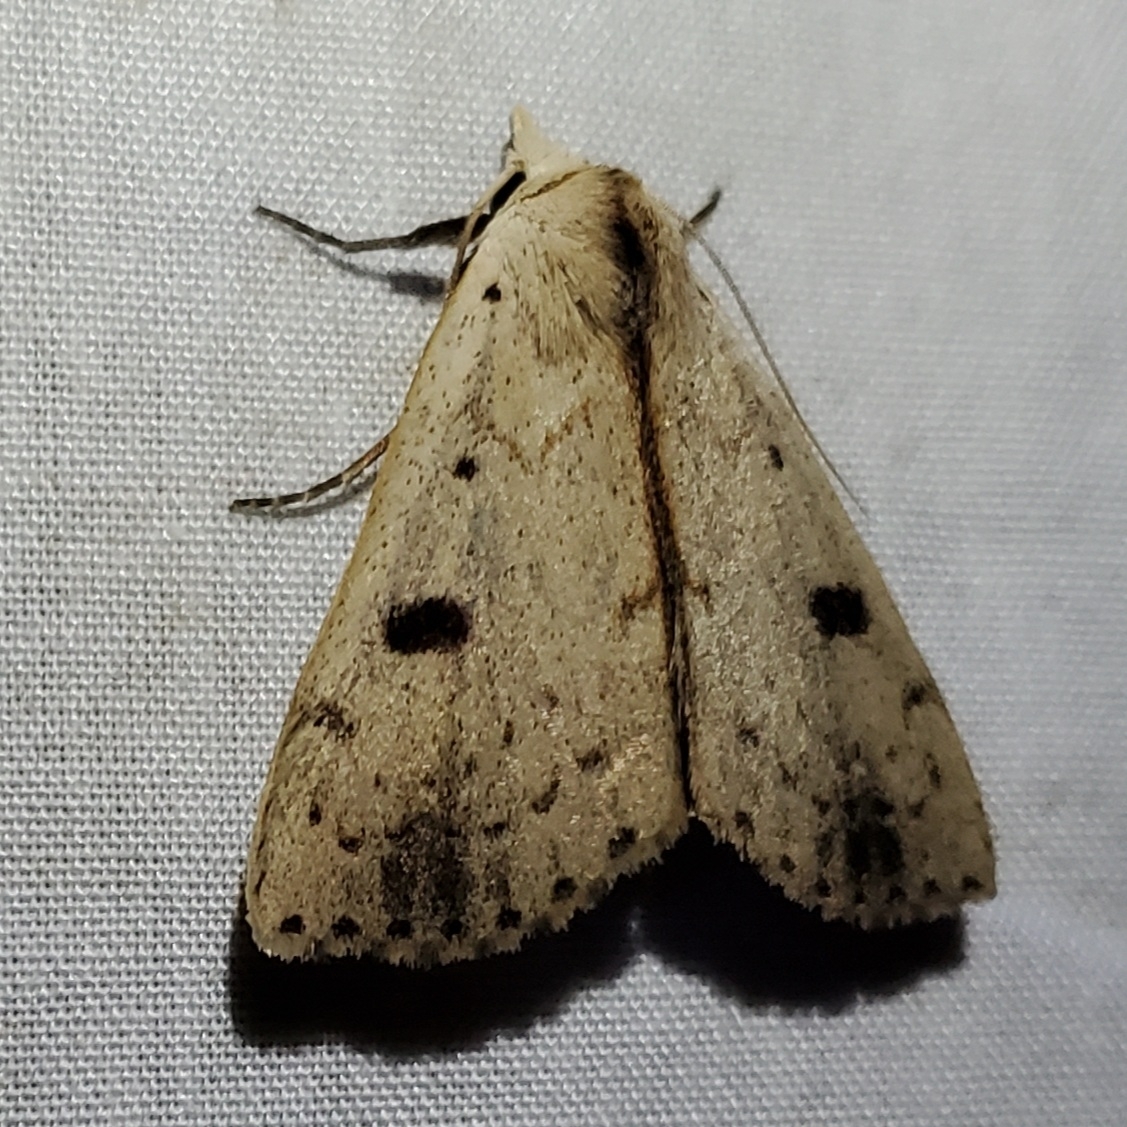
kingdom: Animalia
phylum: Arthropoda
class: Insecta
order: Lepidoptera
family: Erebidae
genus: Scolecocampa
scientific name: Scolecocampa liburna
